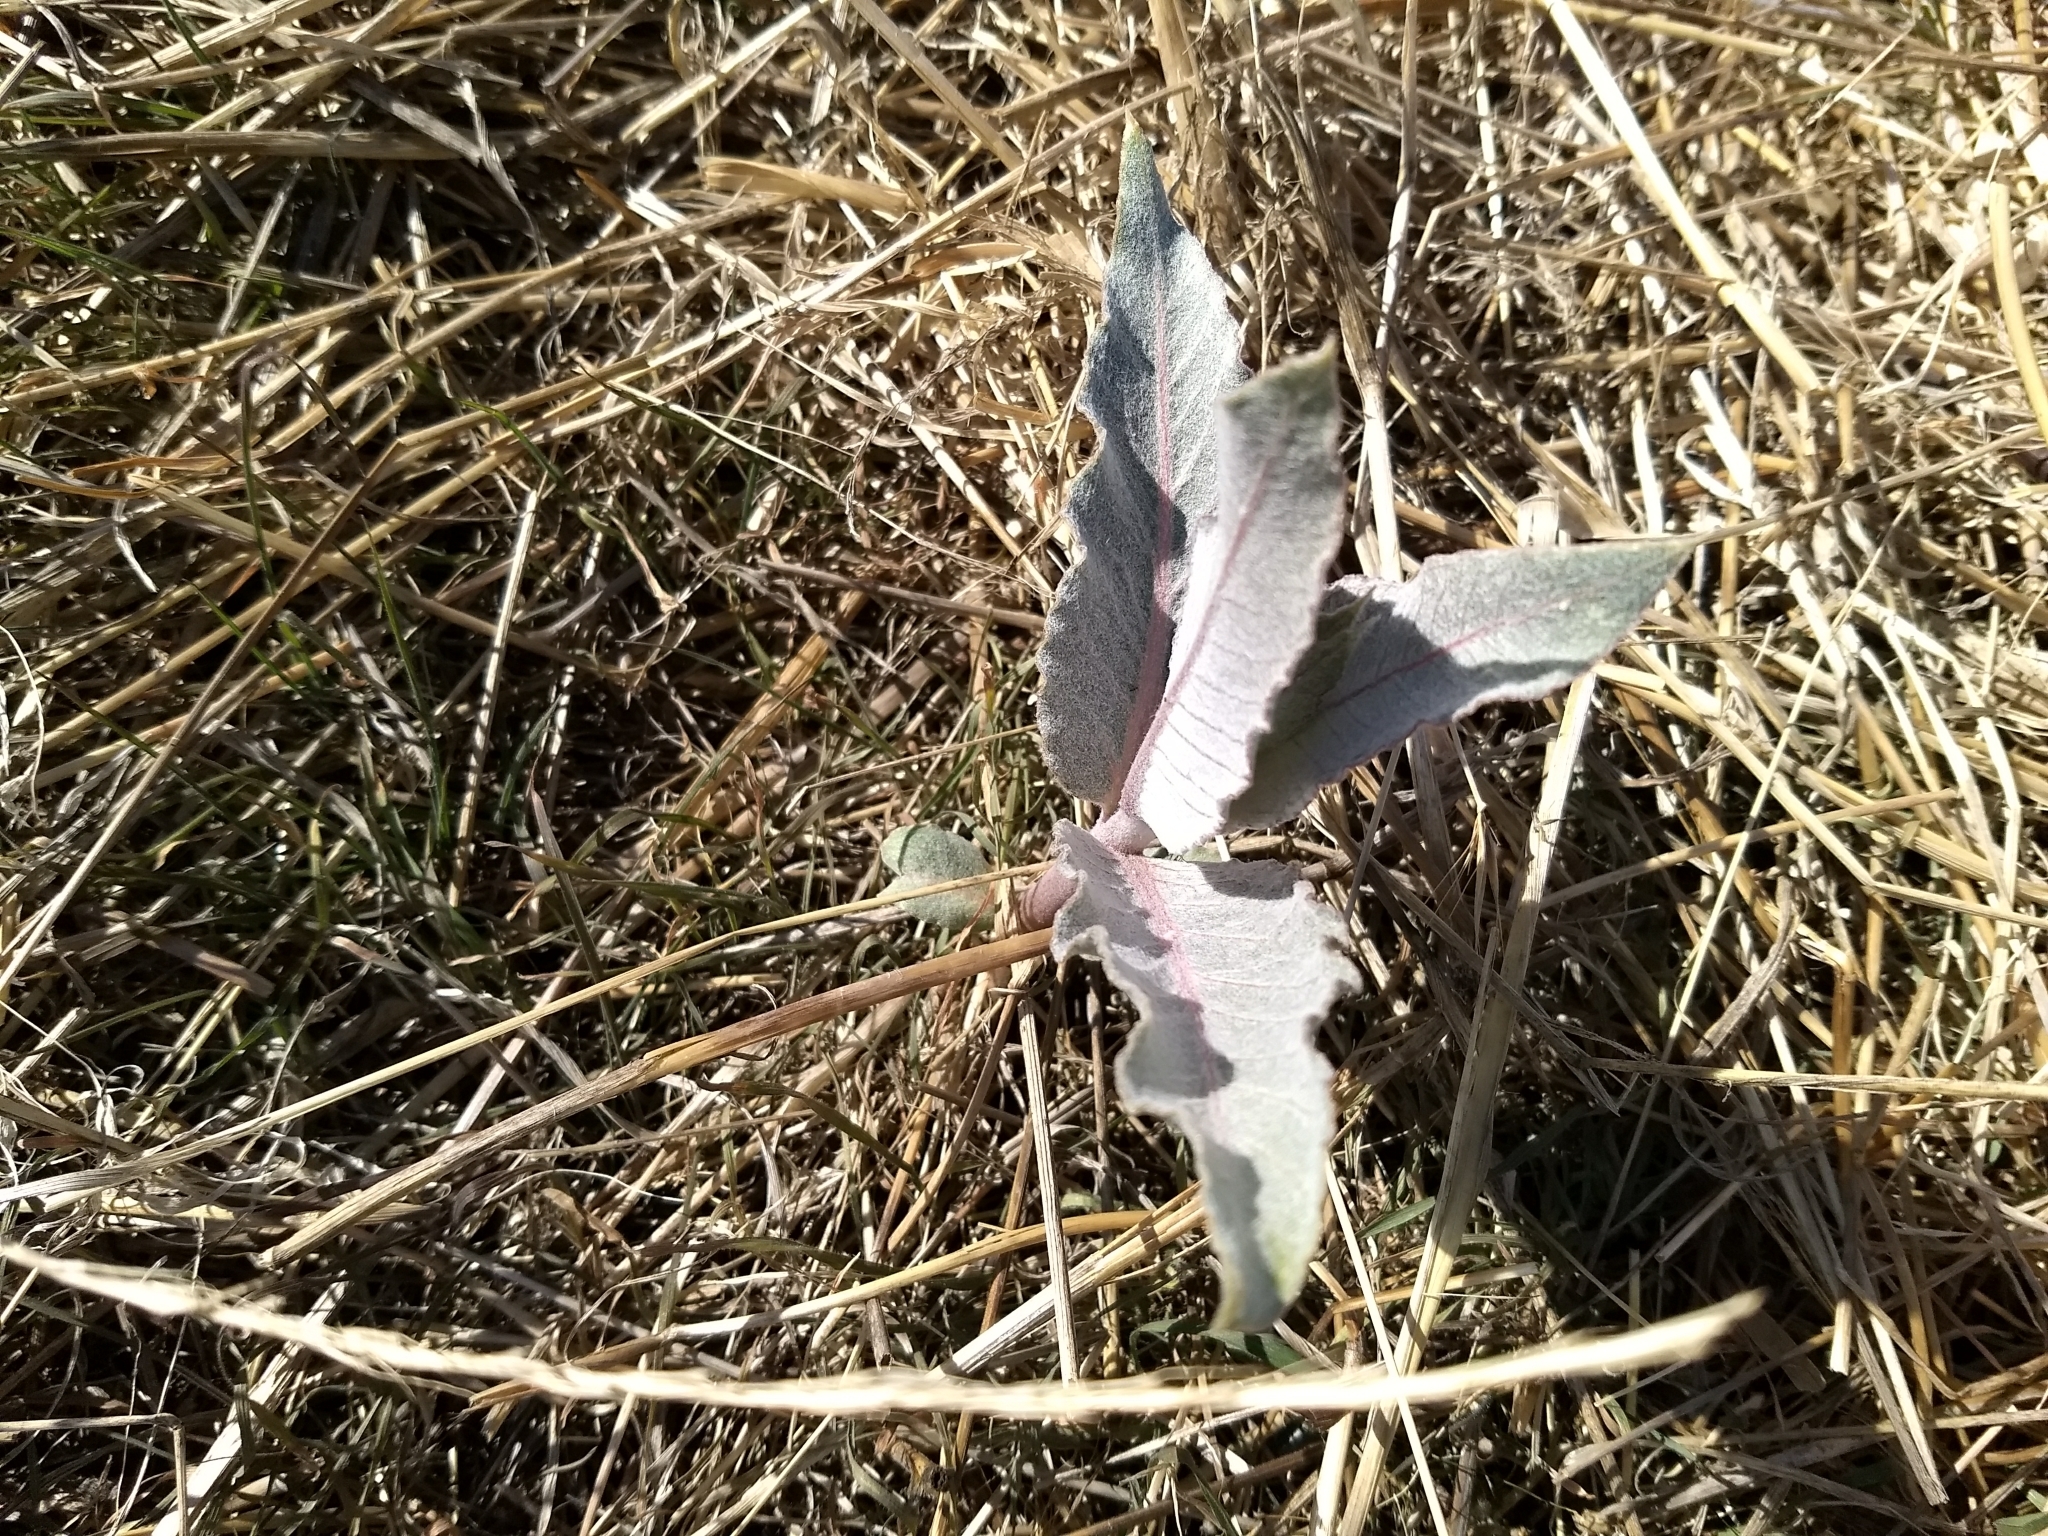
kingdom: Plantae
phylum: Tracheophyta
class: Magnoliopsida
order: Gentianales
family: Apocynaceae
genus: Asclepias
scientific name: Asclepias erosa
